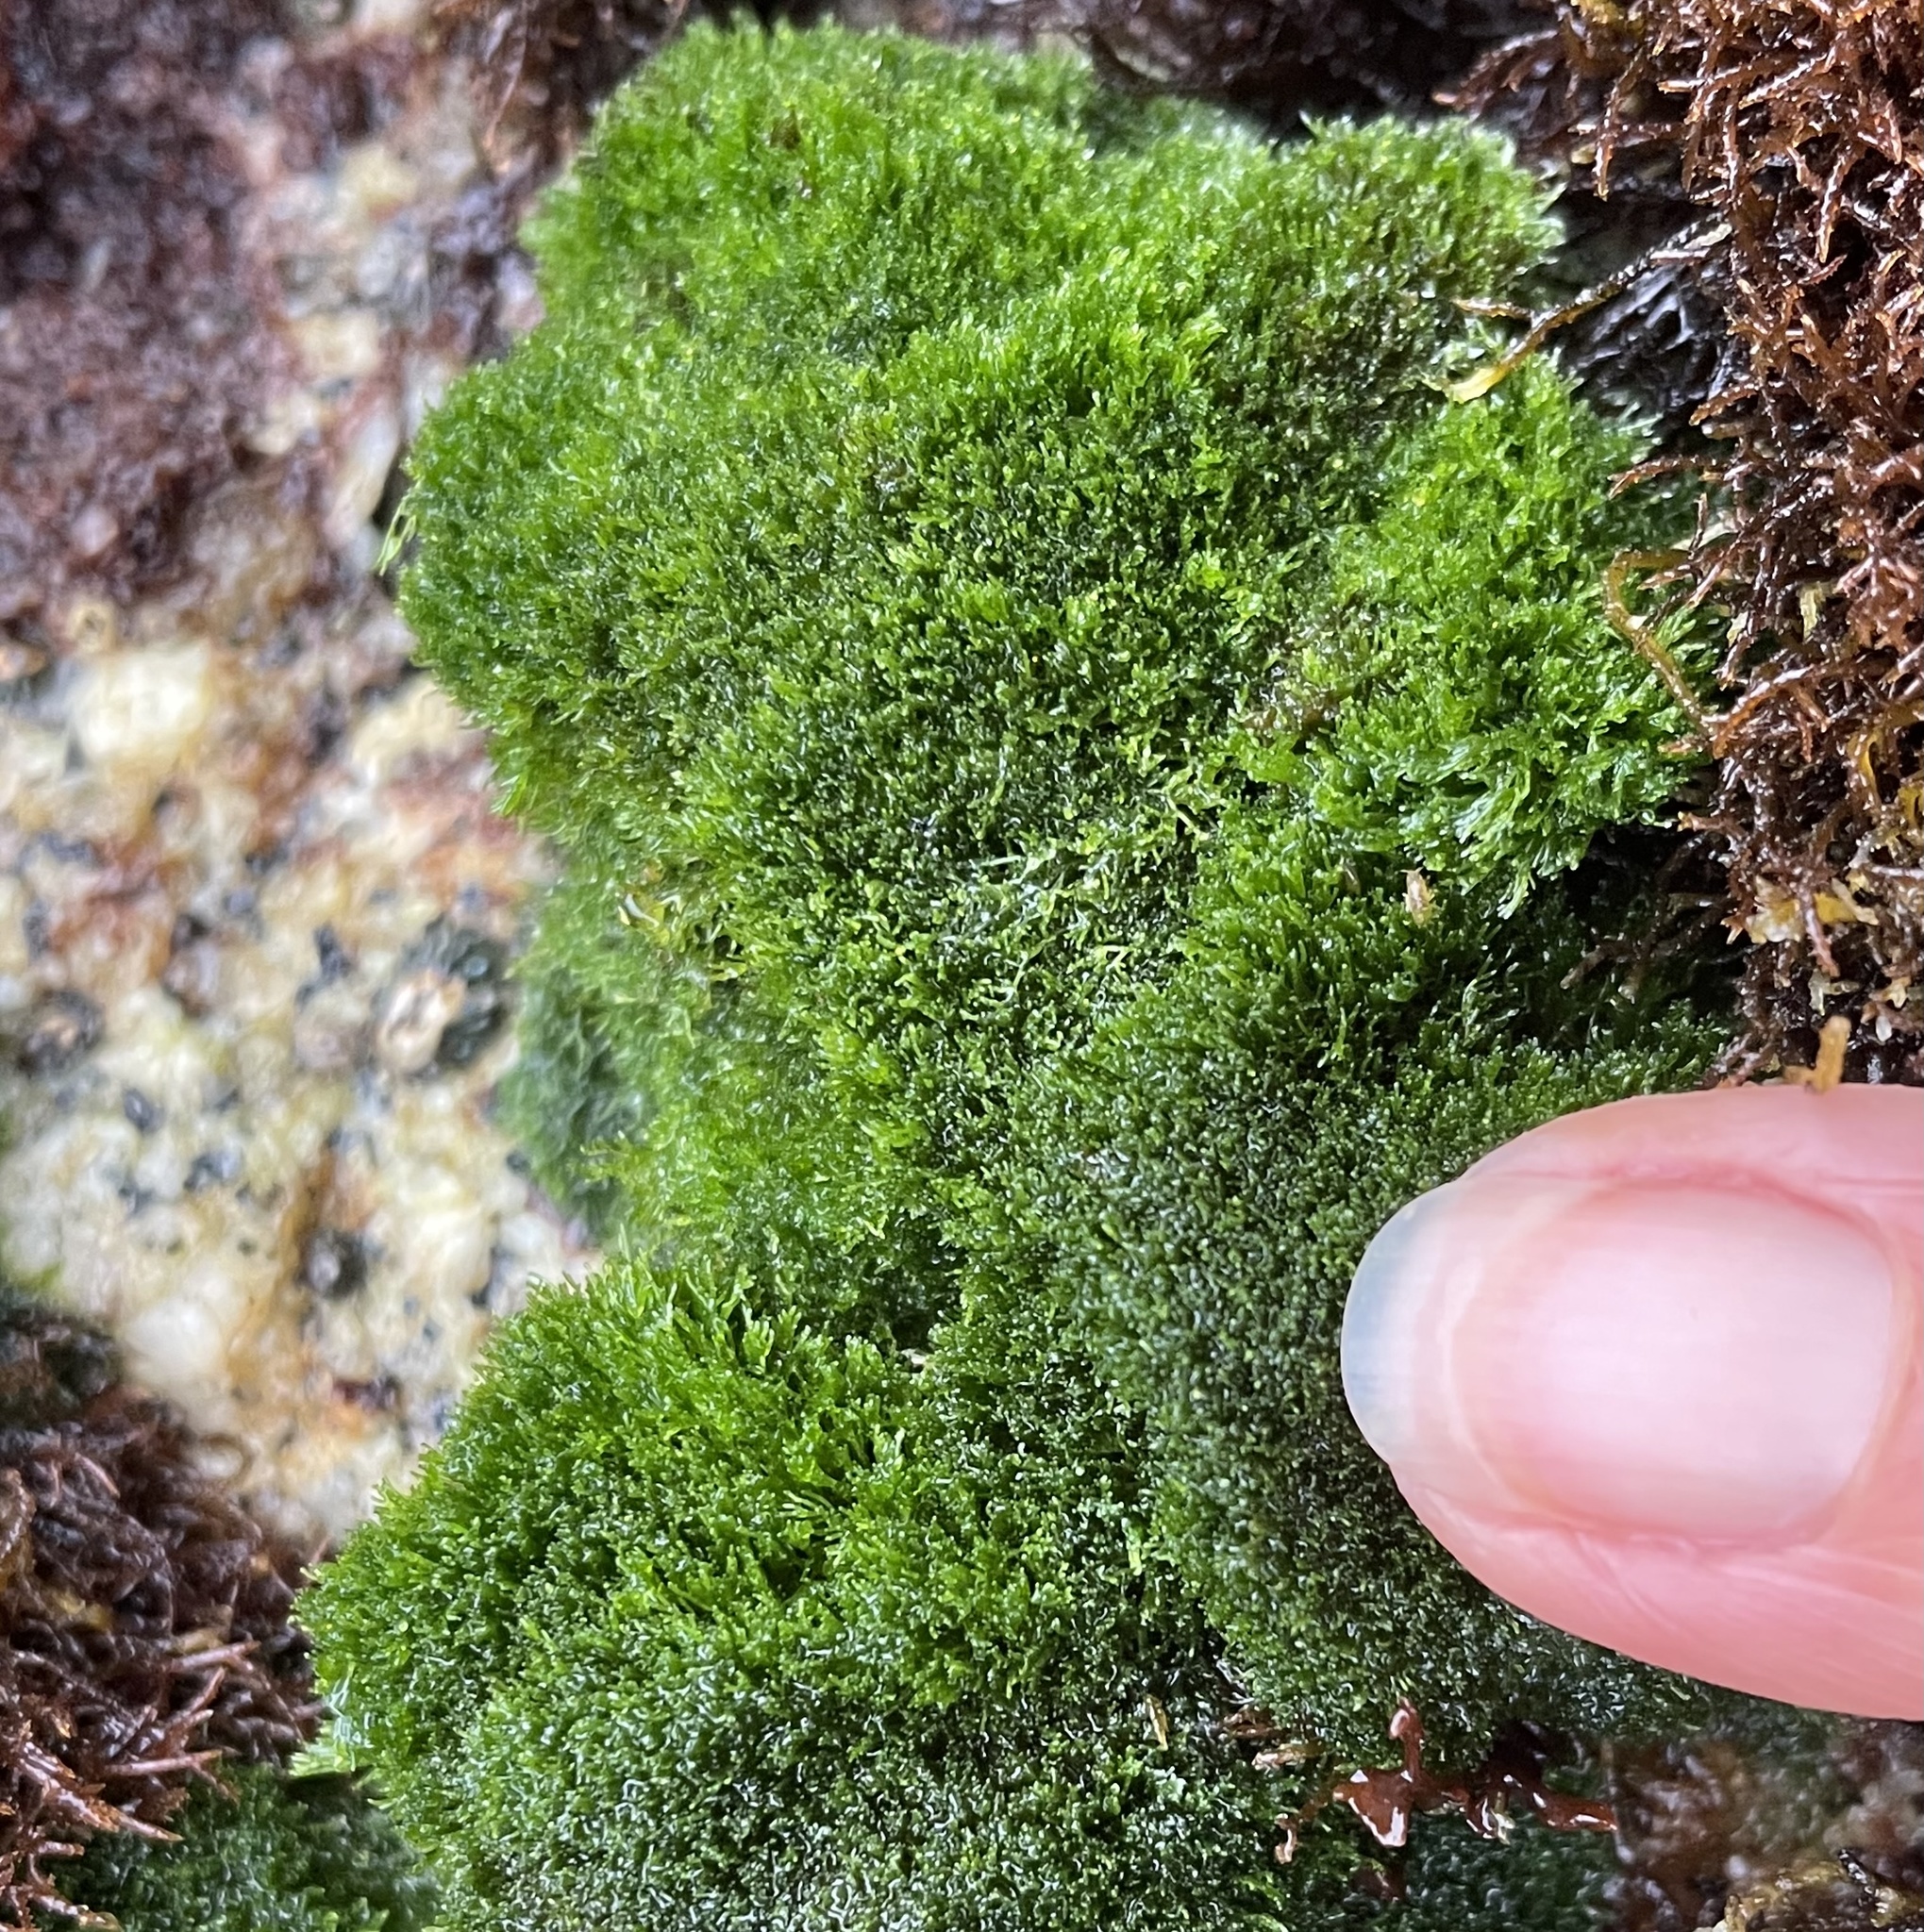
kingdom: Plantae
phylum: Chlorophyta
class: Ulvophyceae
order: Cladophorales
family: Cladophoraceae
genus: Cladophora
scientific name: Cladophora columbiana
